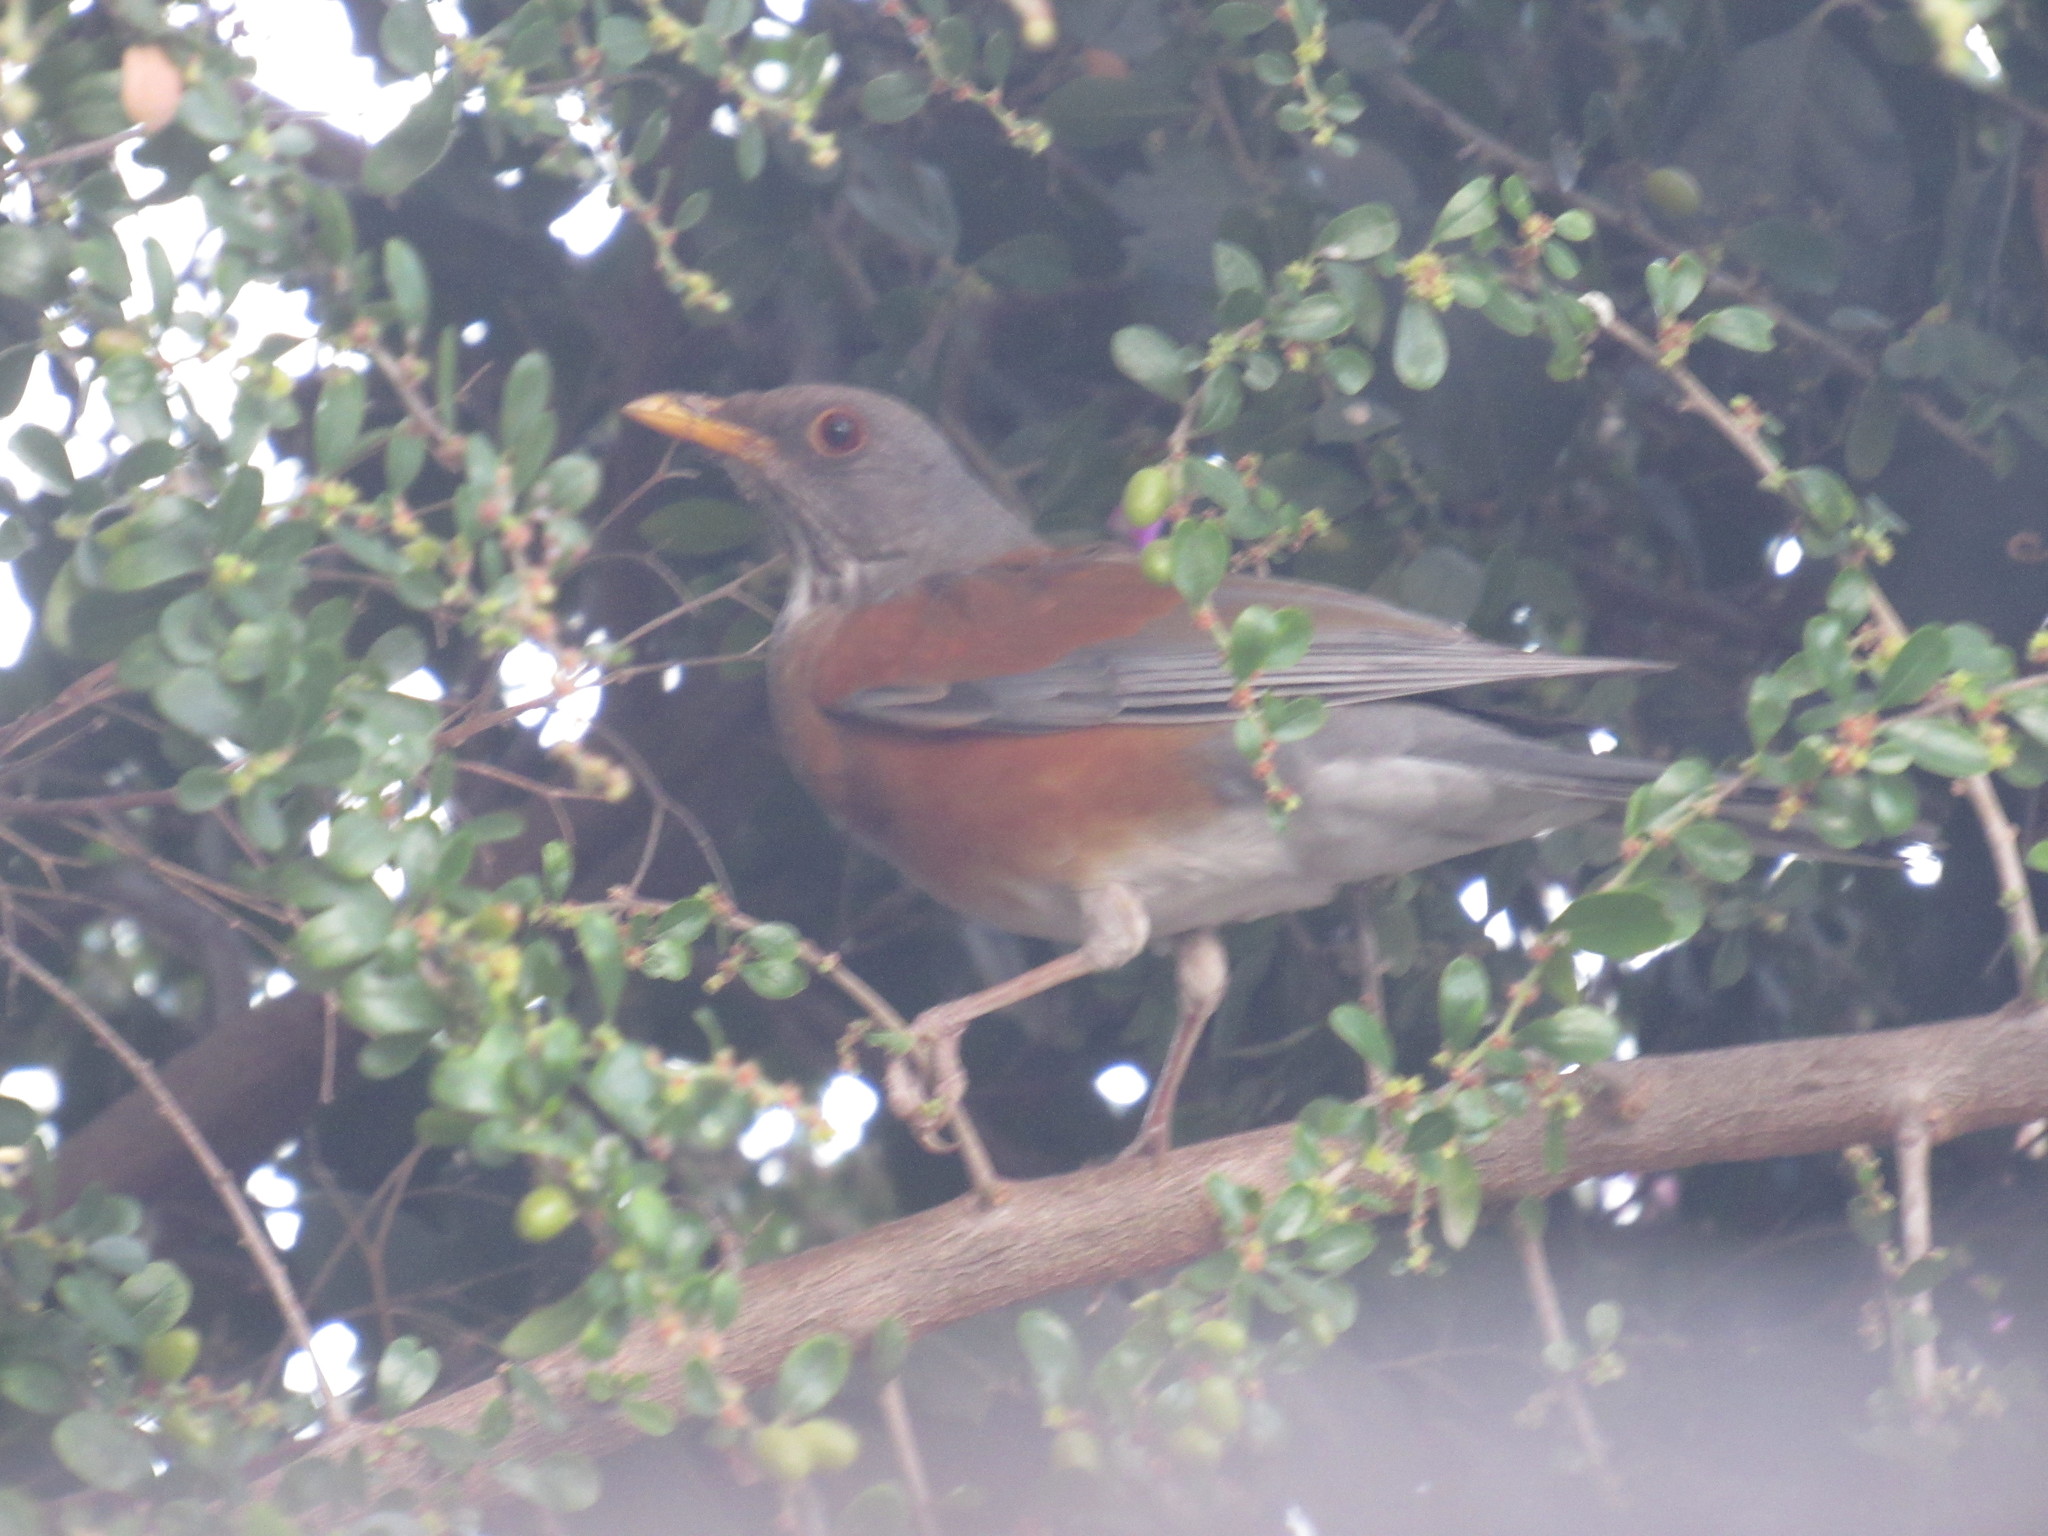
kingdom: Animalia
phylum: Chordata
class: Aves
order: Passeriformes
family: Turdidae
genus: Turdus
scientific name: Turdus rufopalliatus
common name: Rufous-backed robin
